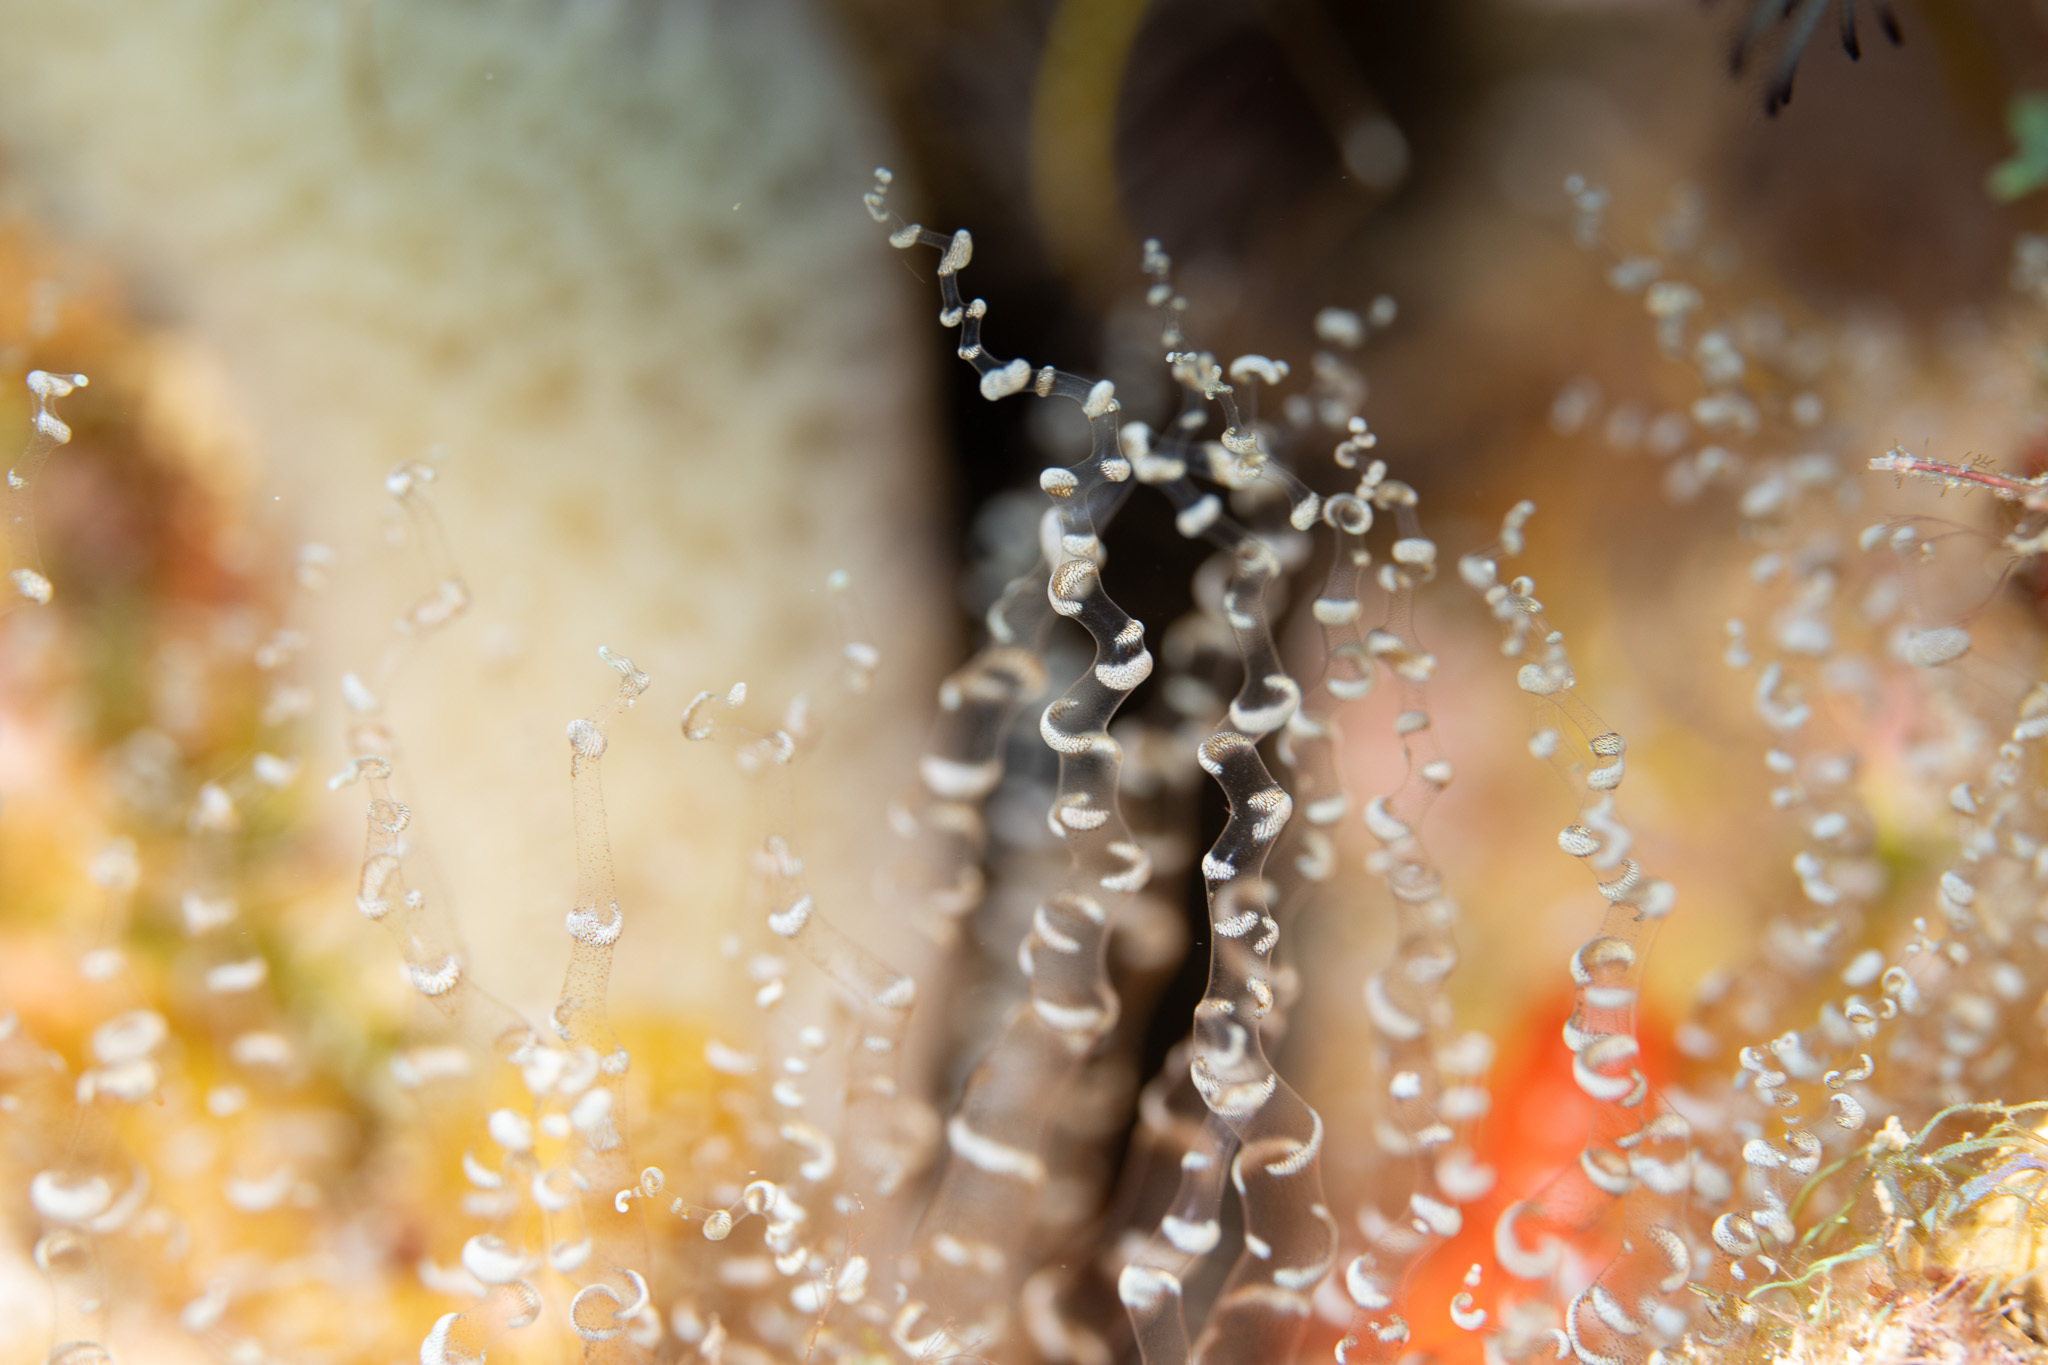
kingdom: Animalia
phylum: Cnidaria
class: Anthozoa
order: Actiniaria
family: Aiptasiidae
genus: Bartholomea
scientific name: Bartholomea annulata
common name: Corkscrew anemone
